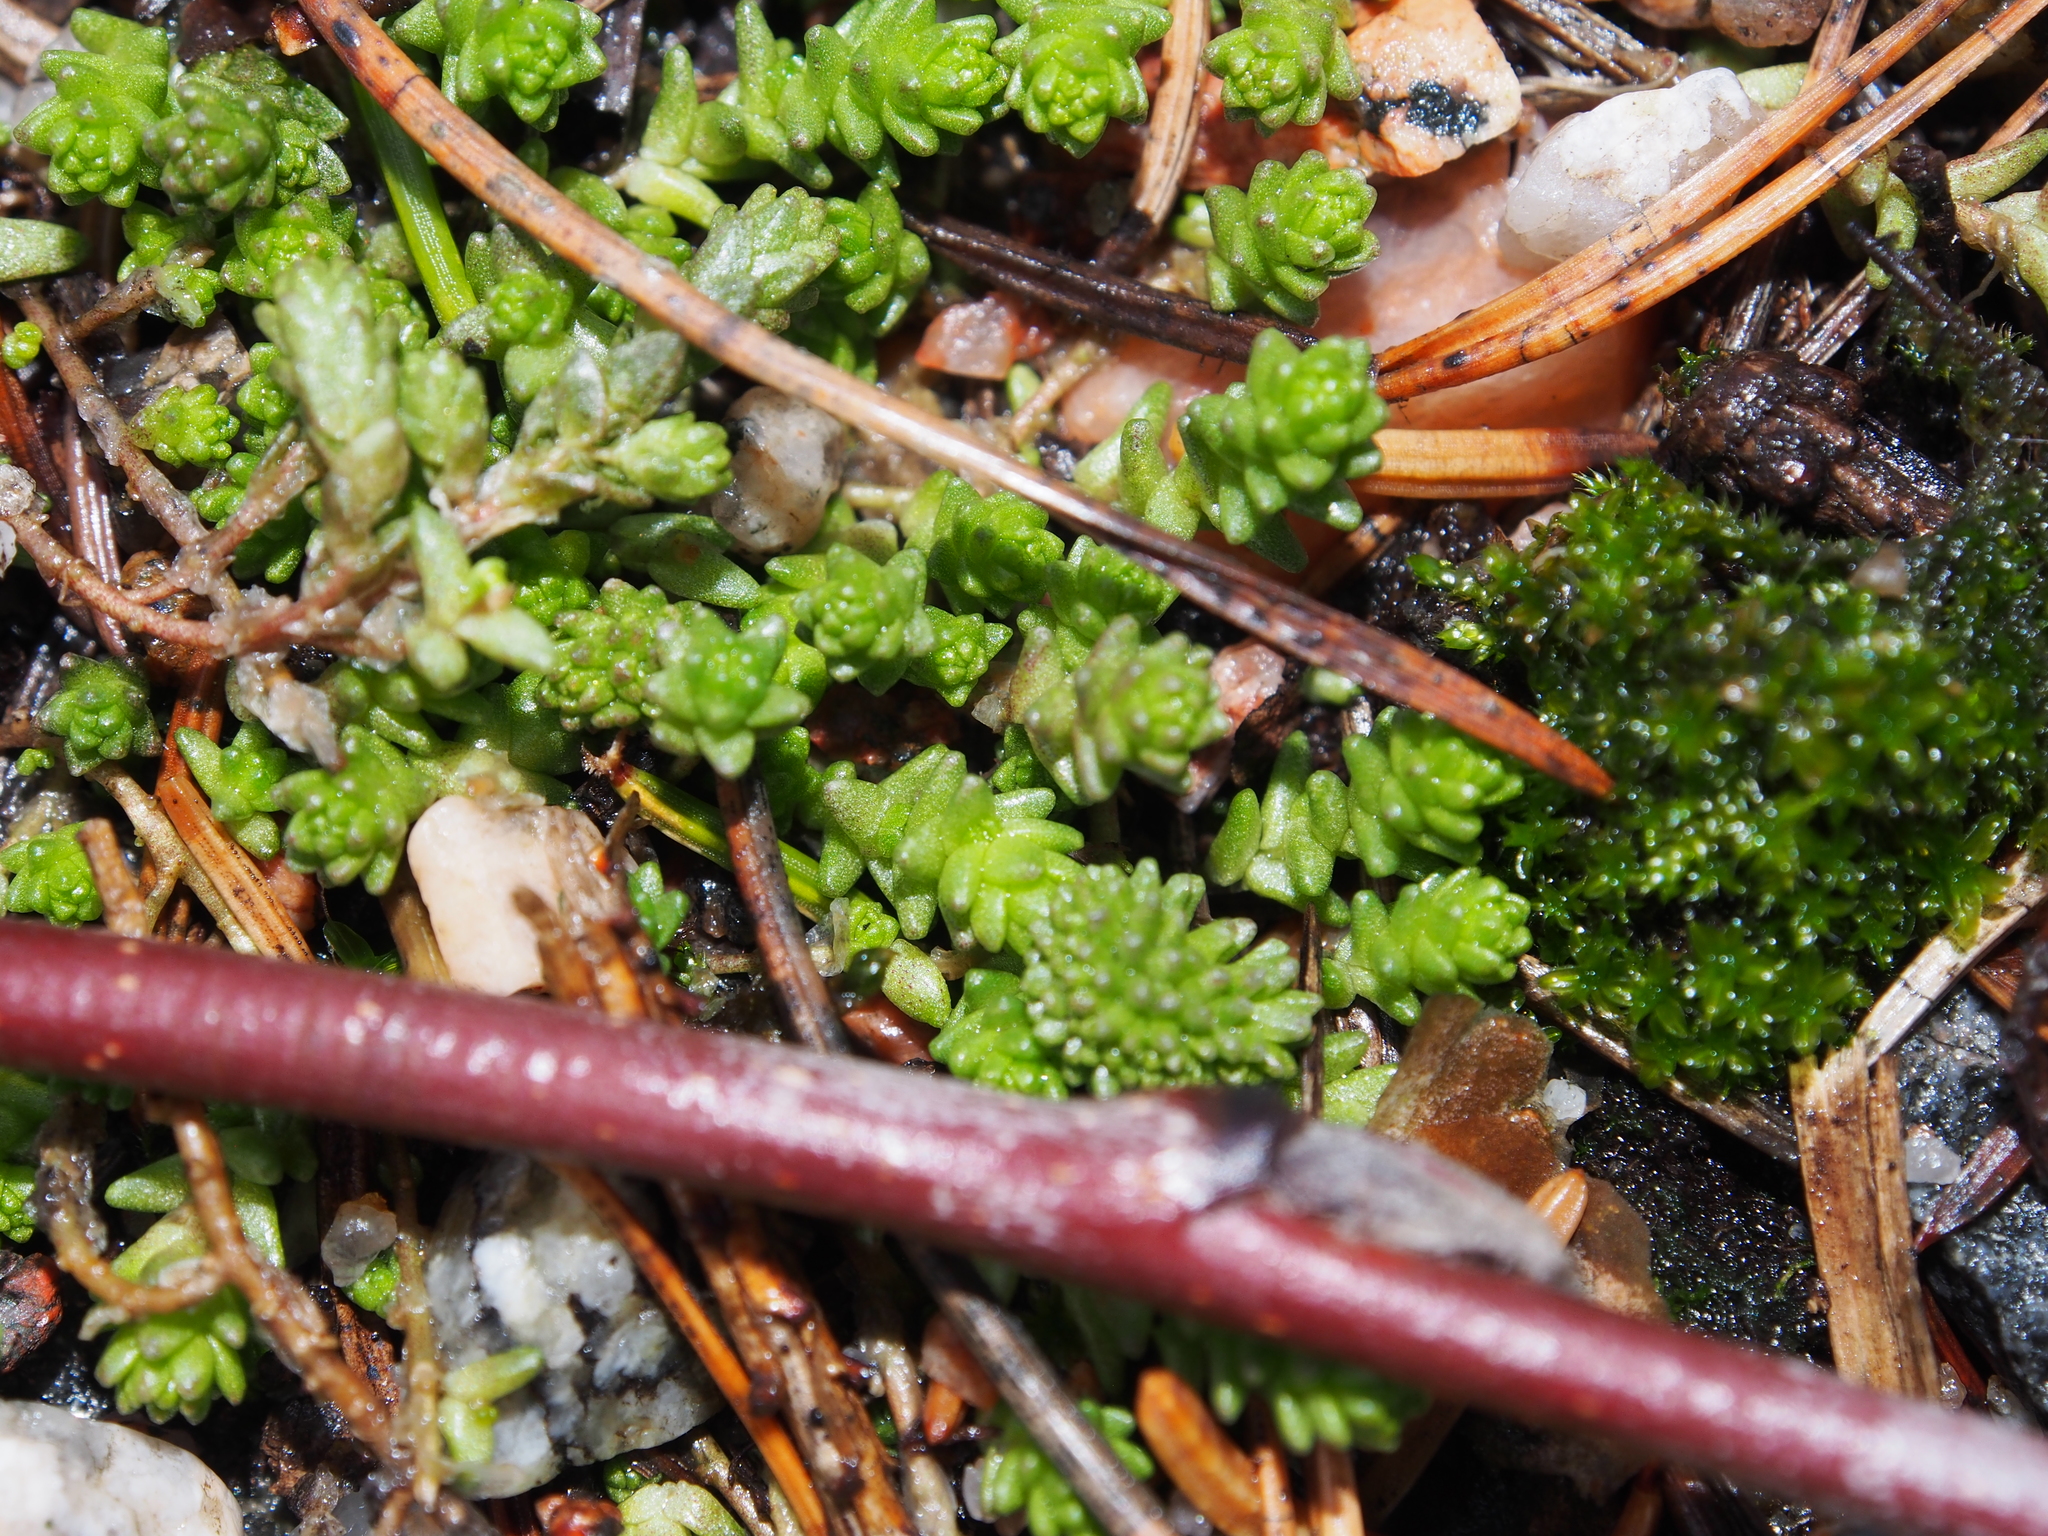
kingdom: Plantae
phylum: Tracheophyta
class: Magnoliopsida
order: Saxifragales
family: Crassulaceae
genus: Sedum
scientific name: Sedum acre
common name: Biting stonecrop
